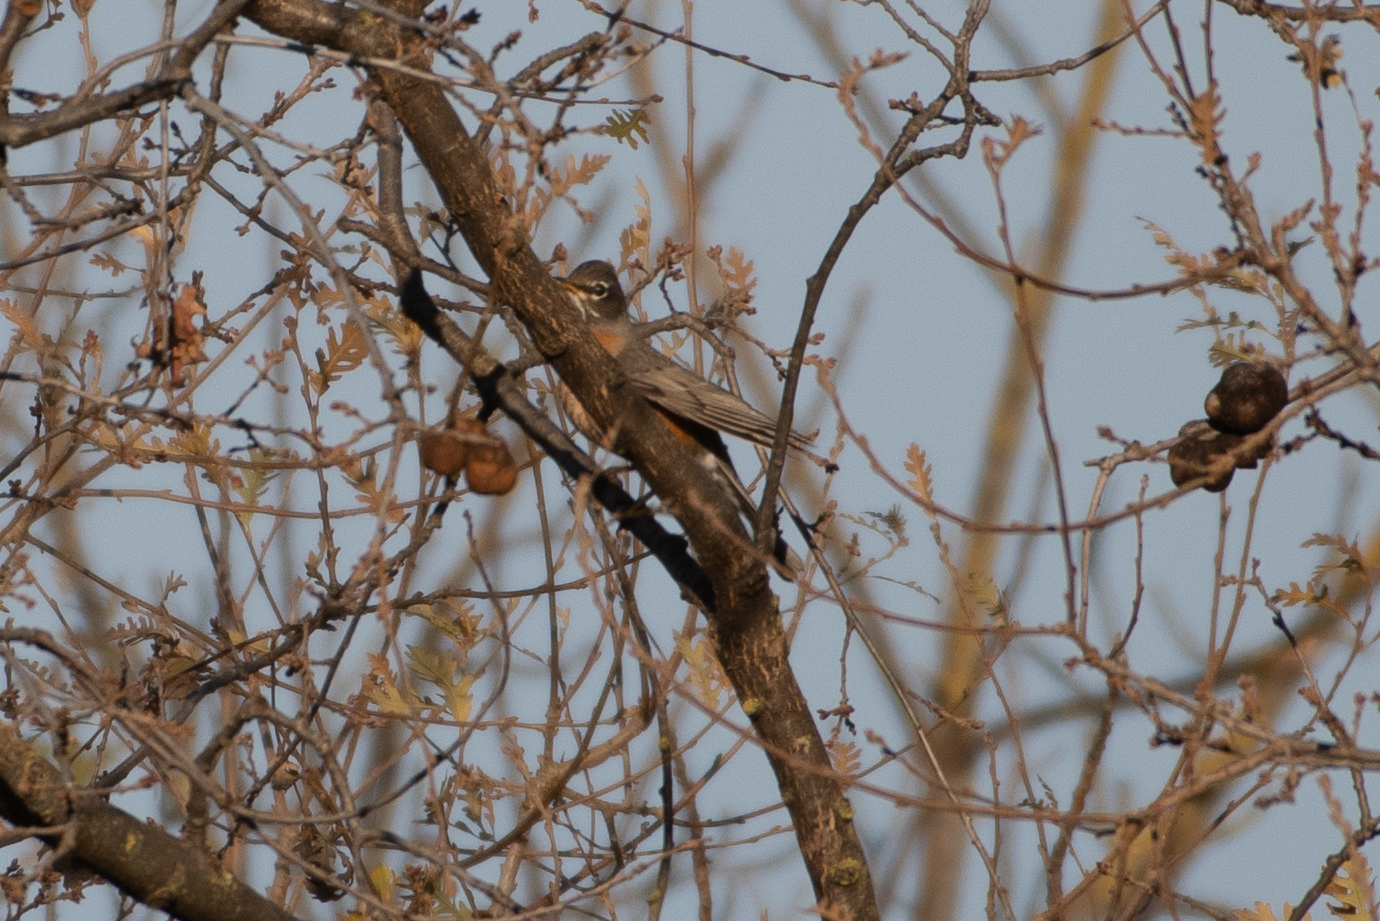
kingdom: Animalia
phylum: Chordata
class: Aves
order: Passeriformes
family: Turdidae
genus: Turdus
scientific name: Turdus migratorius
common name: American robin
